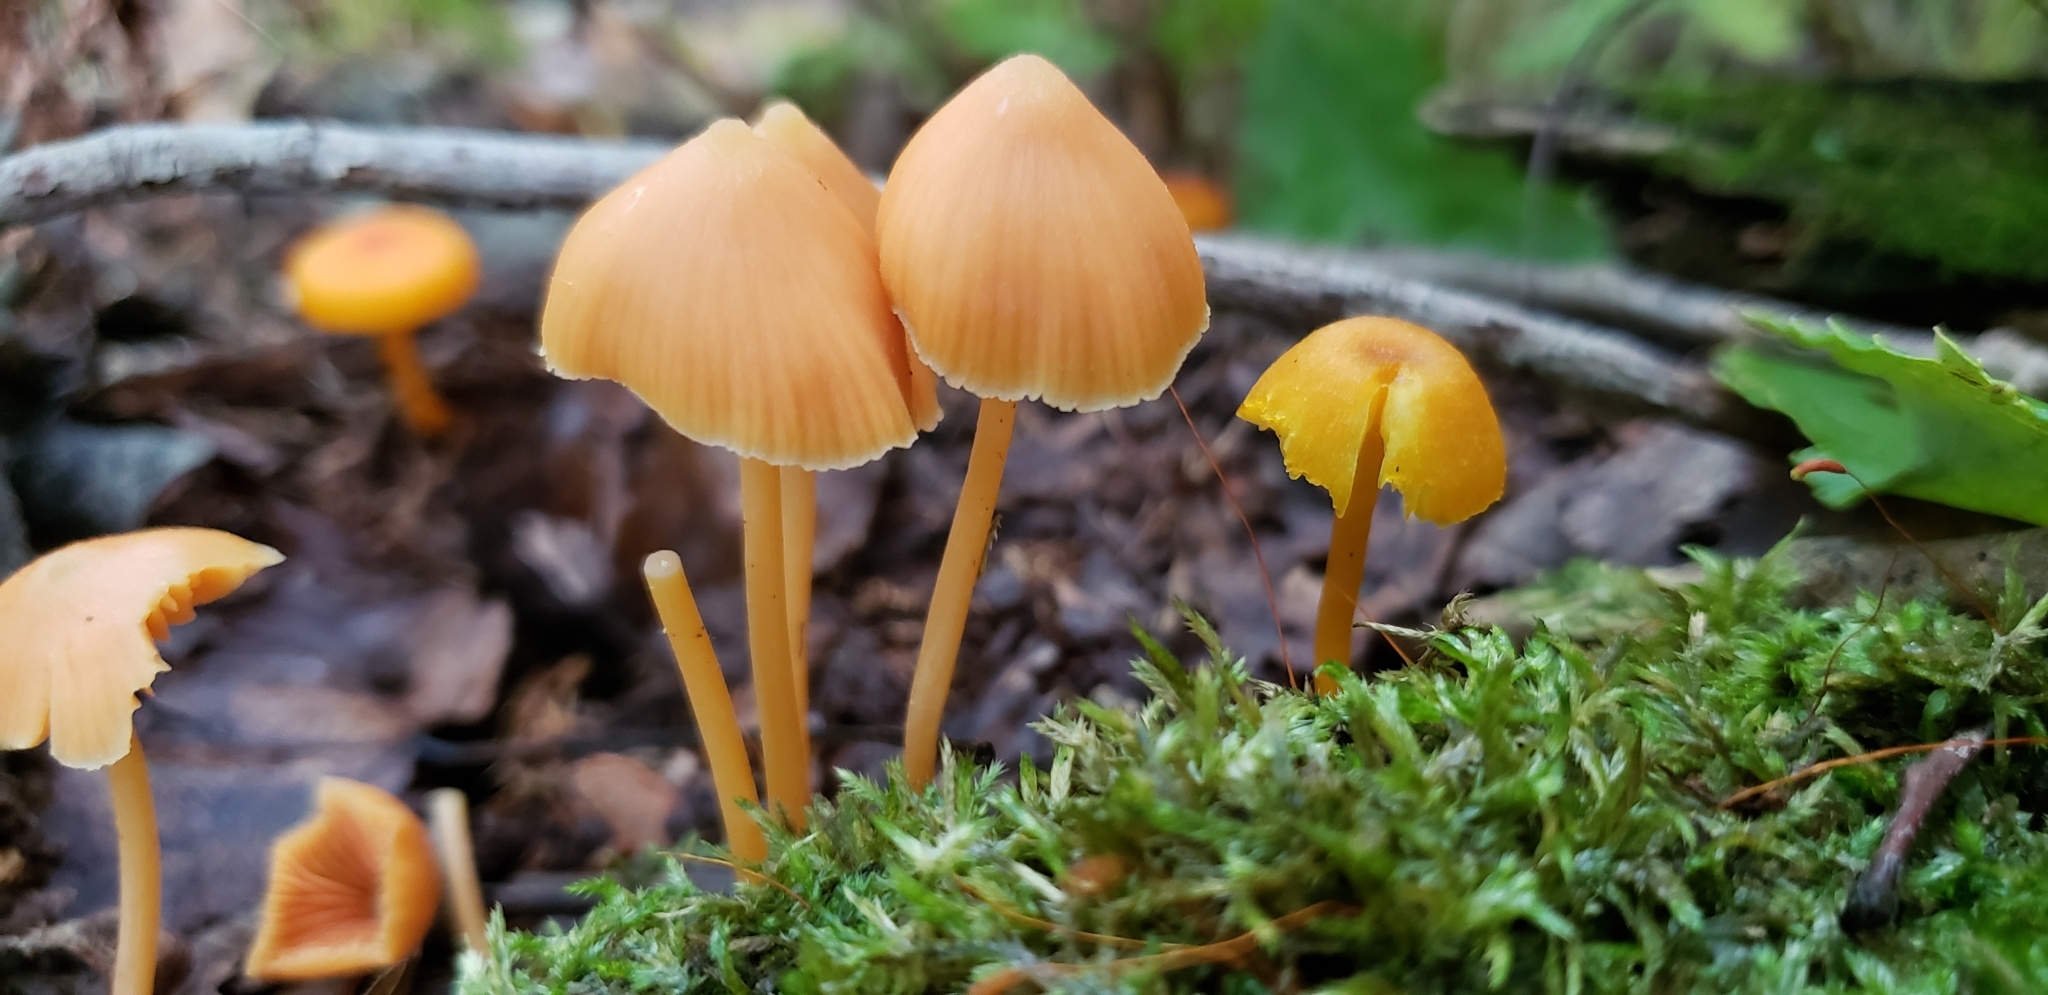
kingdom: Fungi
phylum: Basidiomycota
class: Agaricomycetes
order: Agaricales
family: Entolomataceae
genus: Entoloma
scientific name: Entoloma quadratum
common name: Salmon pinkgill
